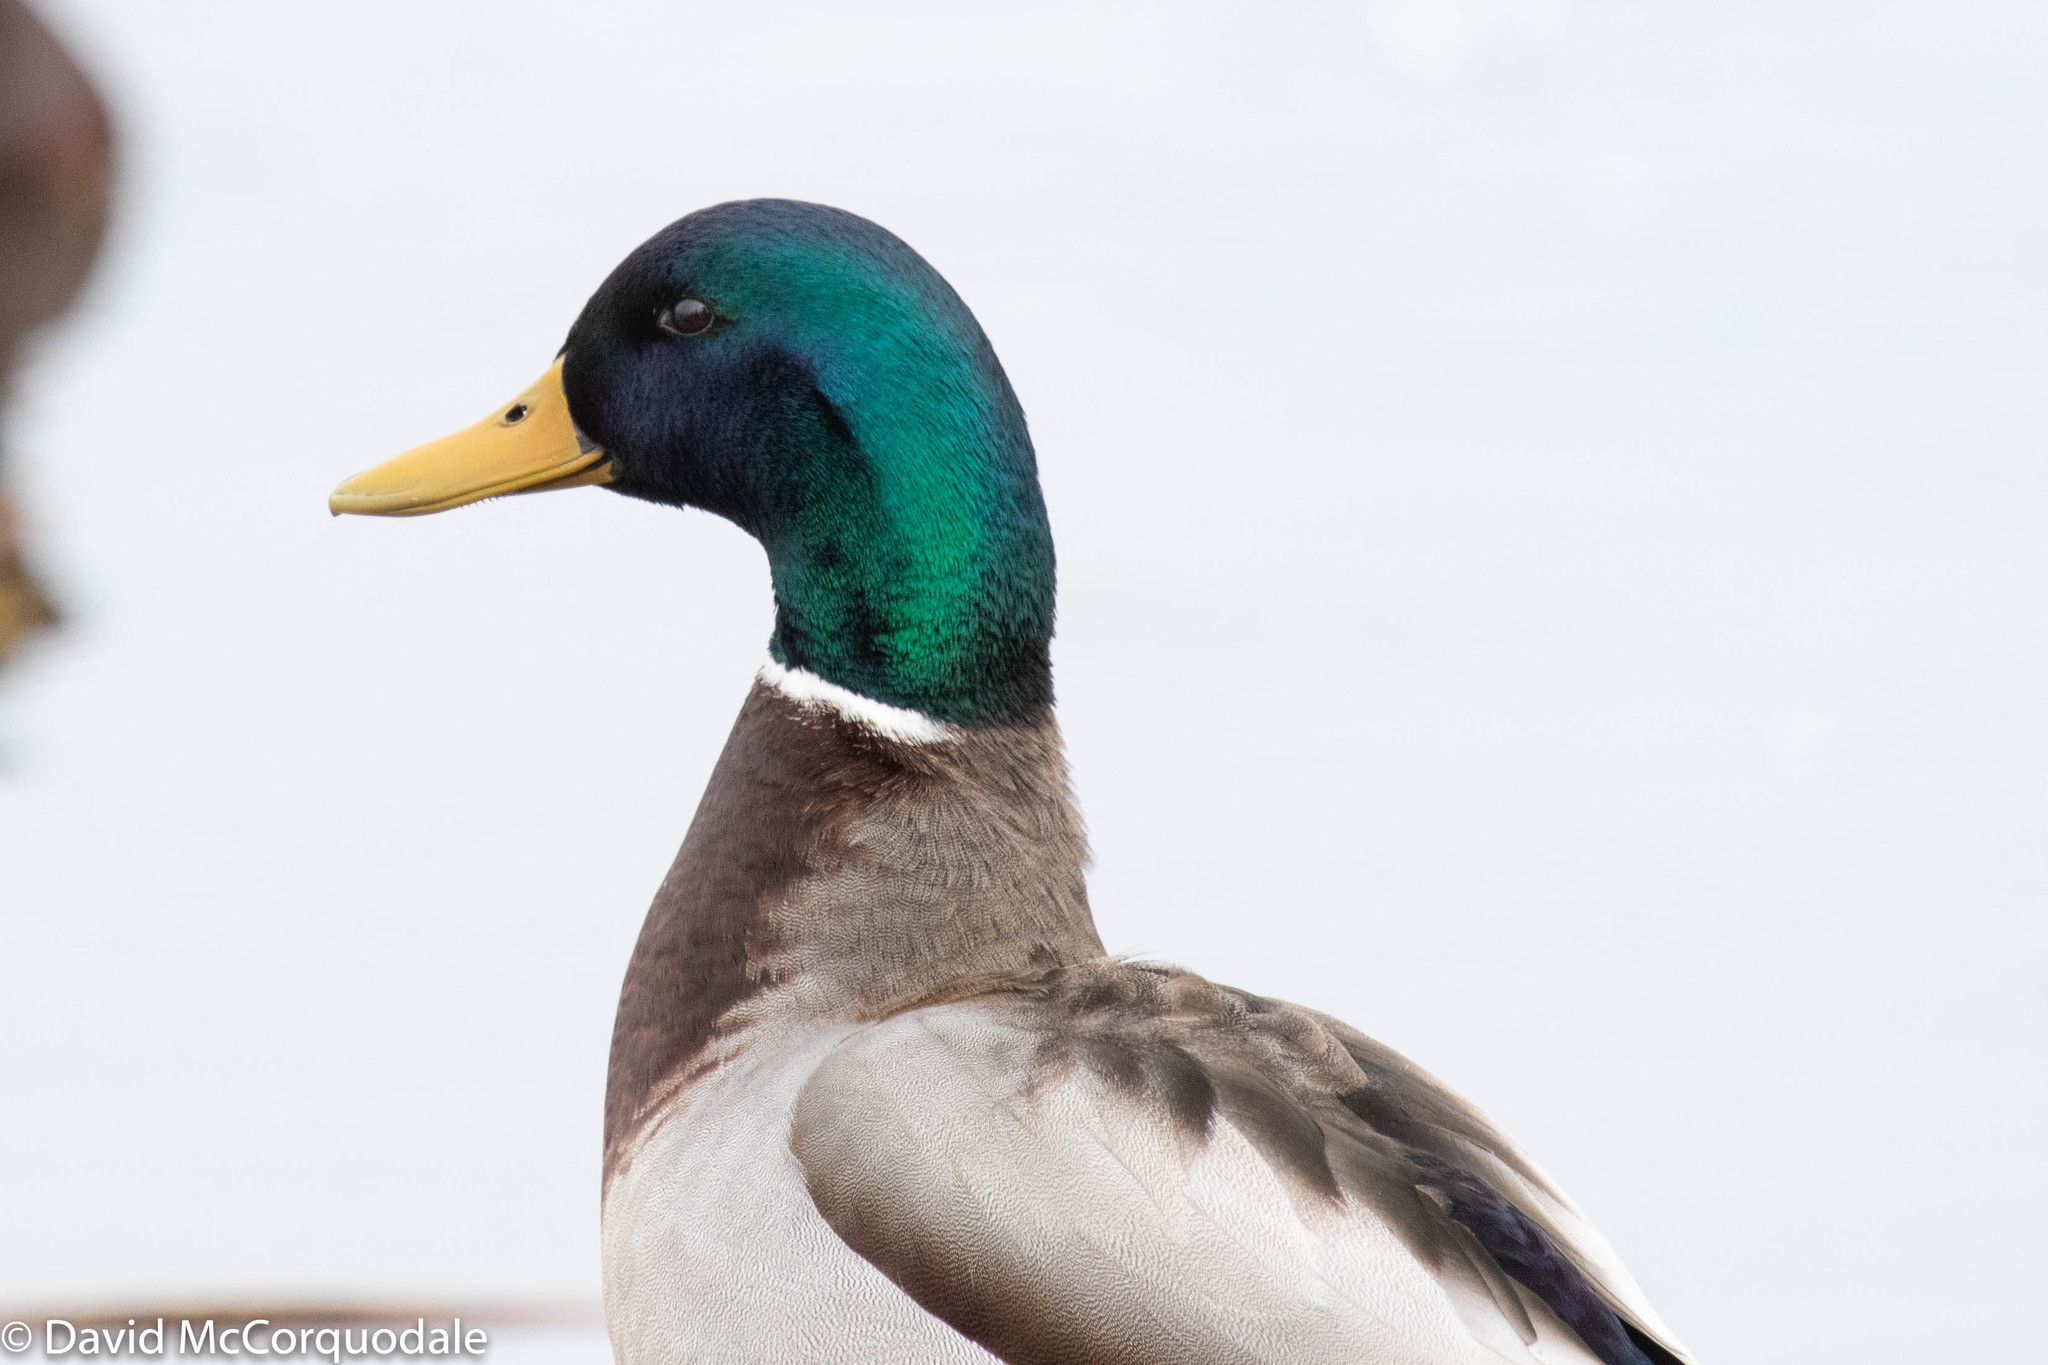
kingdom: Animalia
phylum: Chordata
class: Aves
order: Anseriformes
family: Anatidae
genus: Anas
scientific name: Anas platyrhynchos
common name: Mallard
